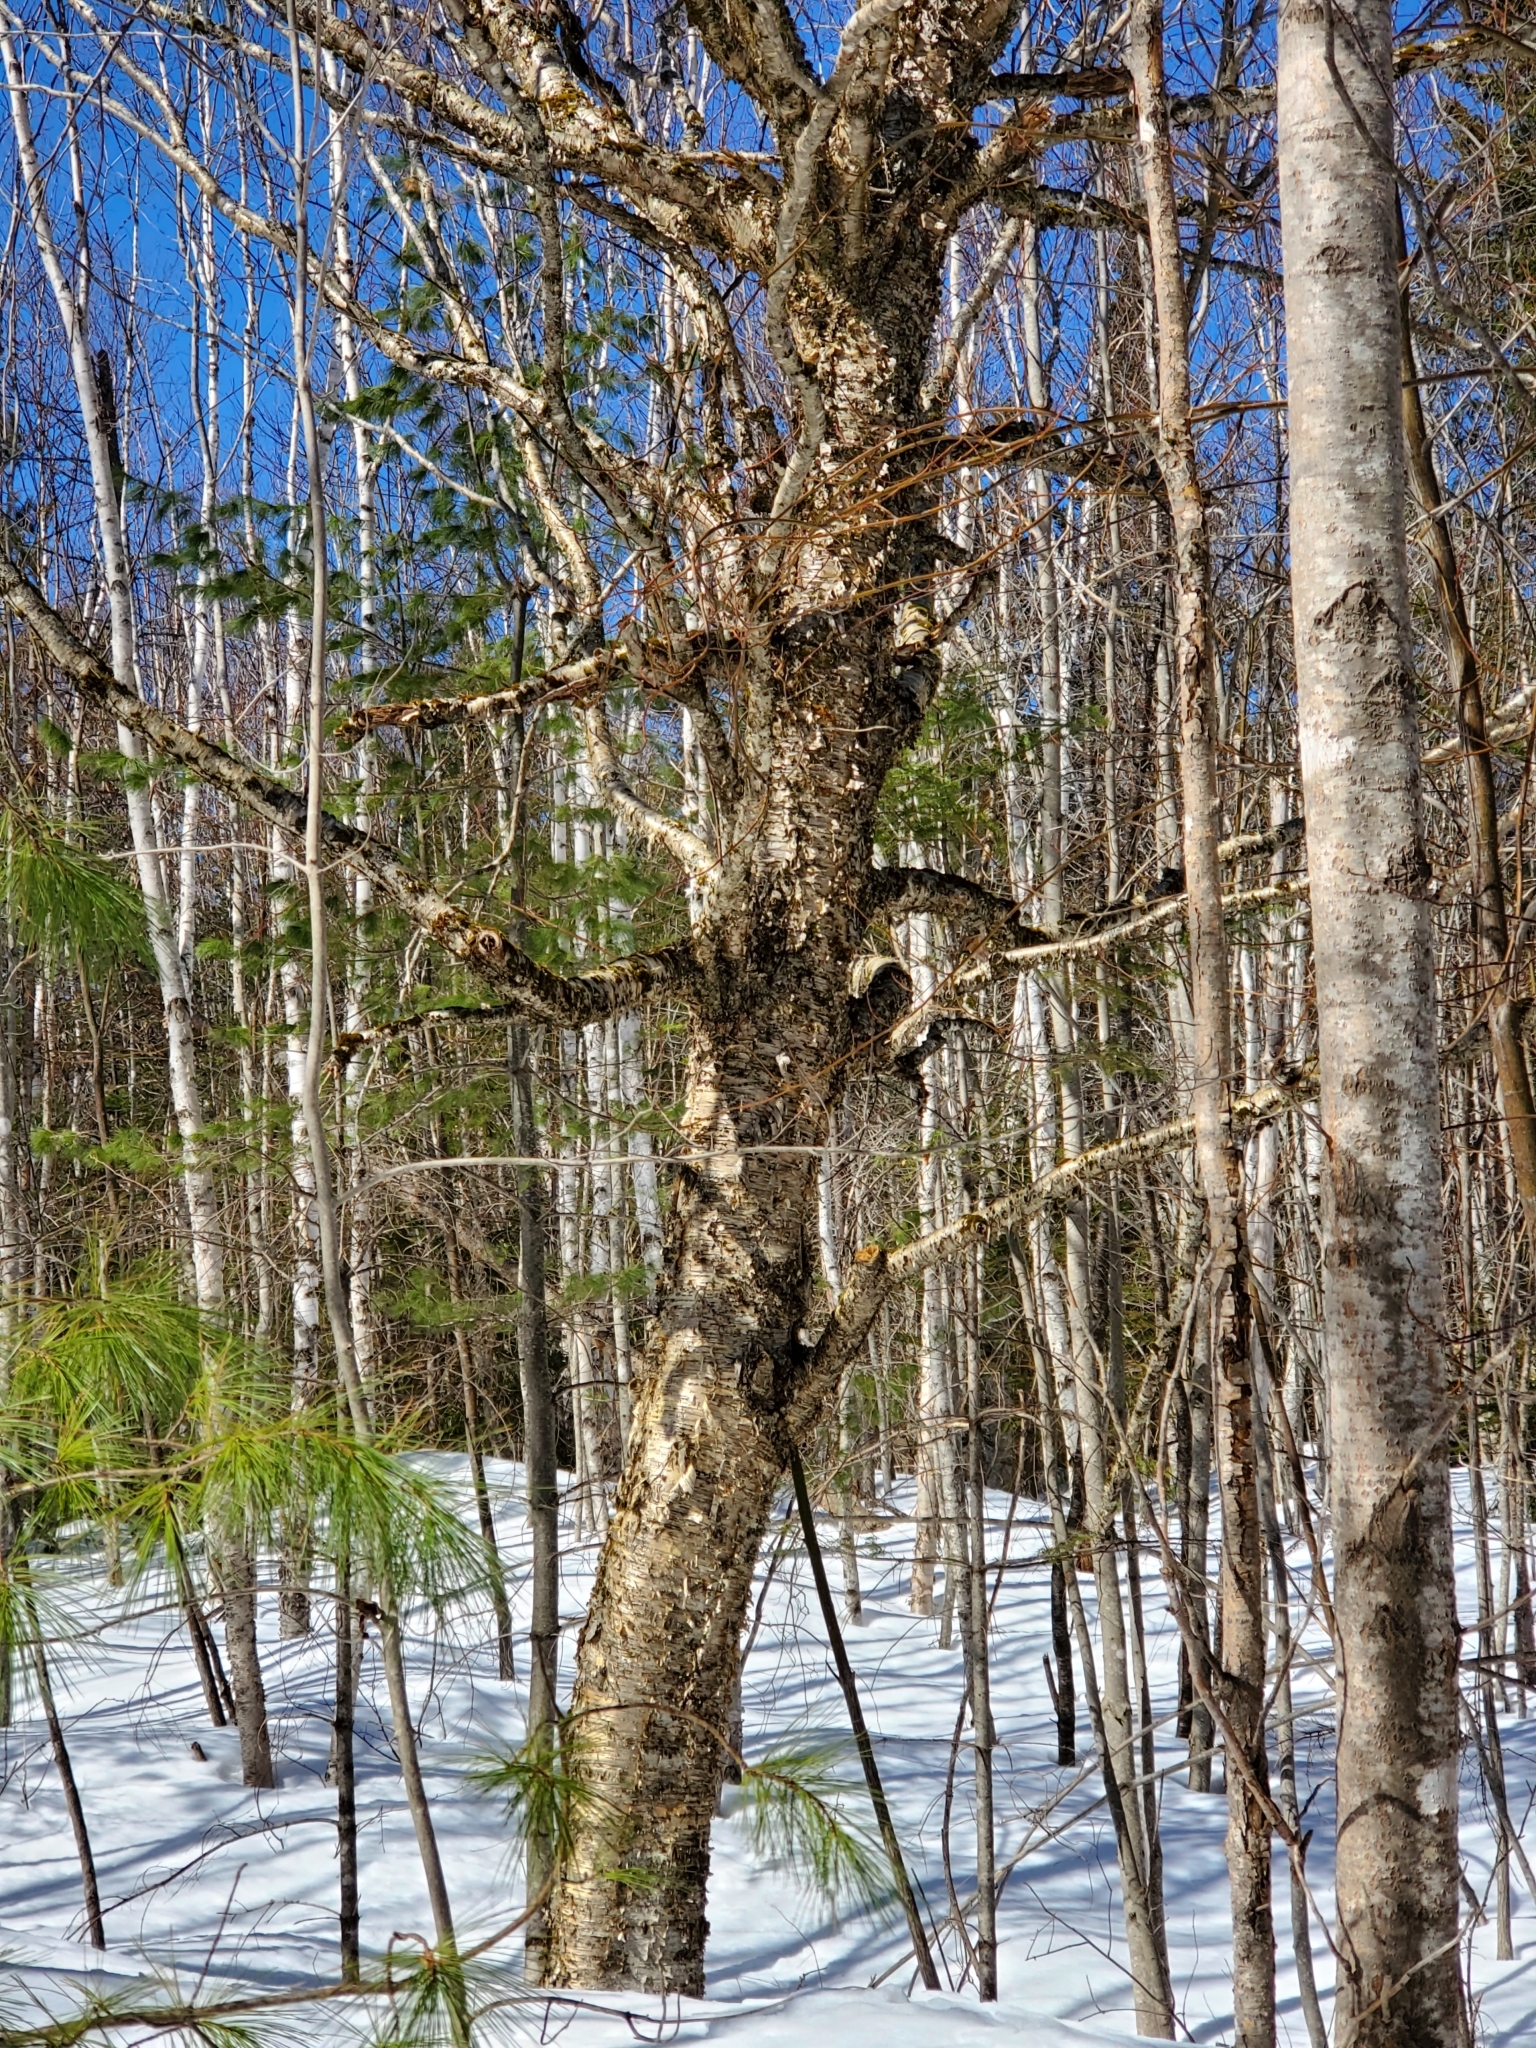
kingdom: Plantae
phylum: Tracheophyta
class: Magnoliopsida
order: Fagales
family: Betulaceae
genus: Betula
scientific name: Betula alleghaniensis
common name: Yellow birch
